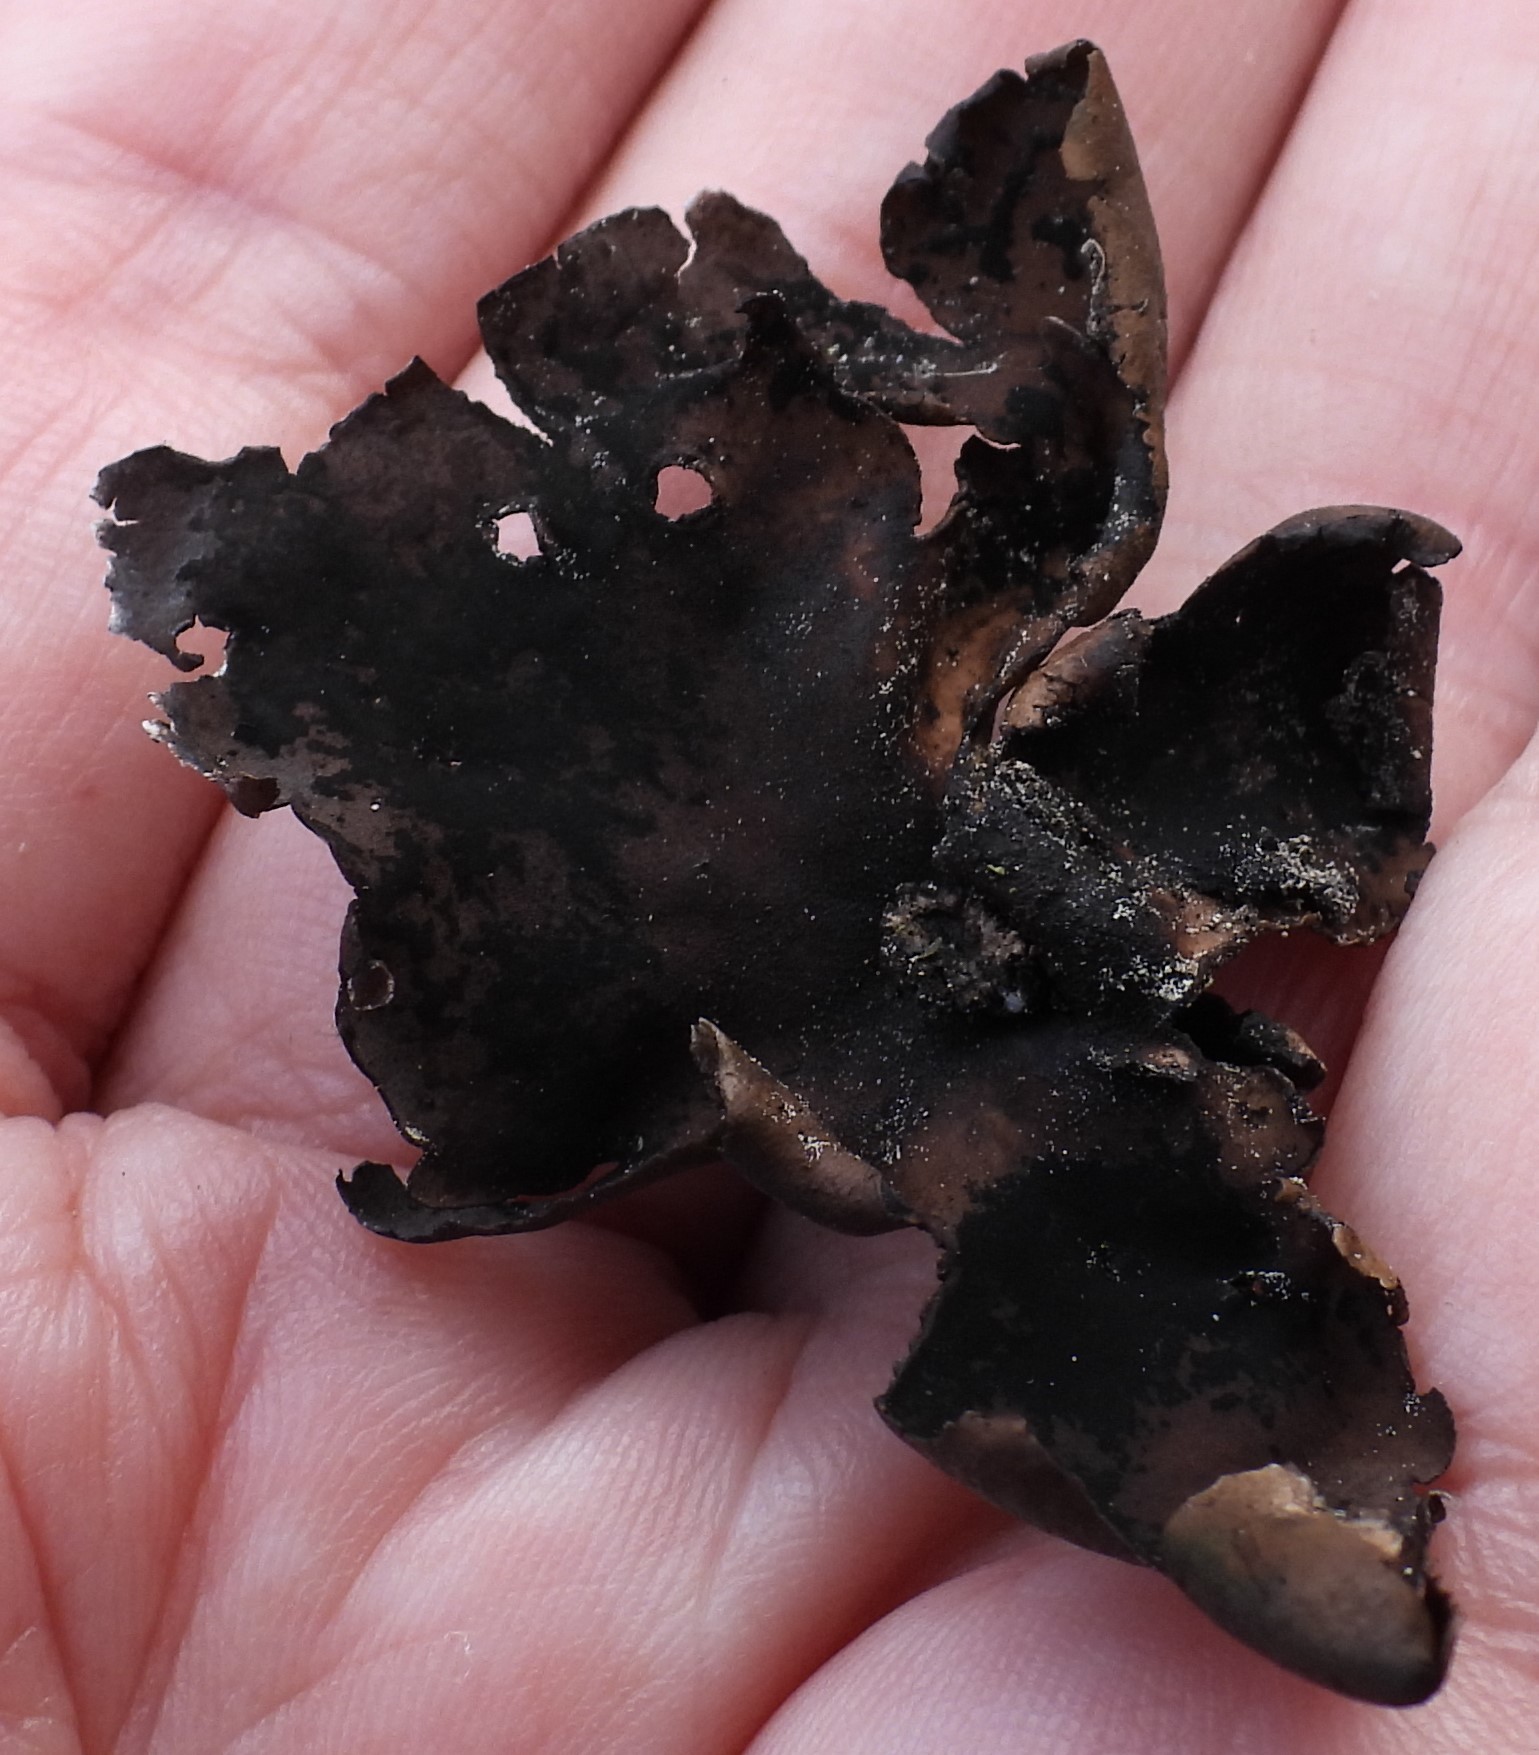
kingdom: Fungi
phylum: Ascomycota
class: Lecanoromycetes
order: Umbilicariales
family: Umbilicariaceae
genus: Umbilicaria
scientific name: Umbilicaria polyphylla
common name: Petalled rocktripe lichen
